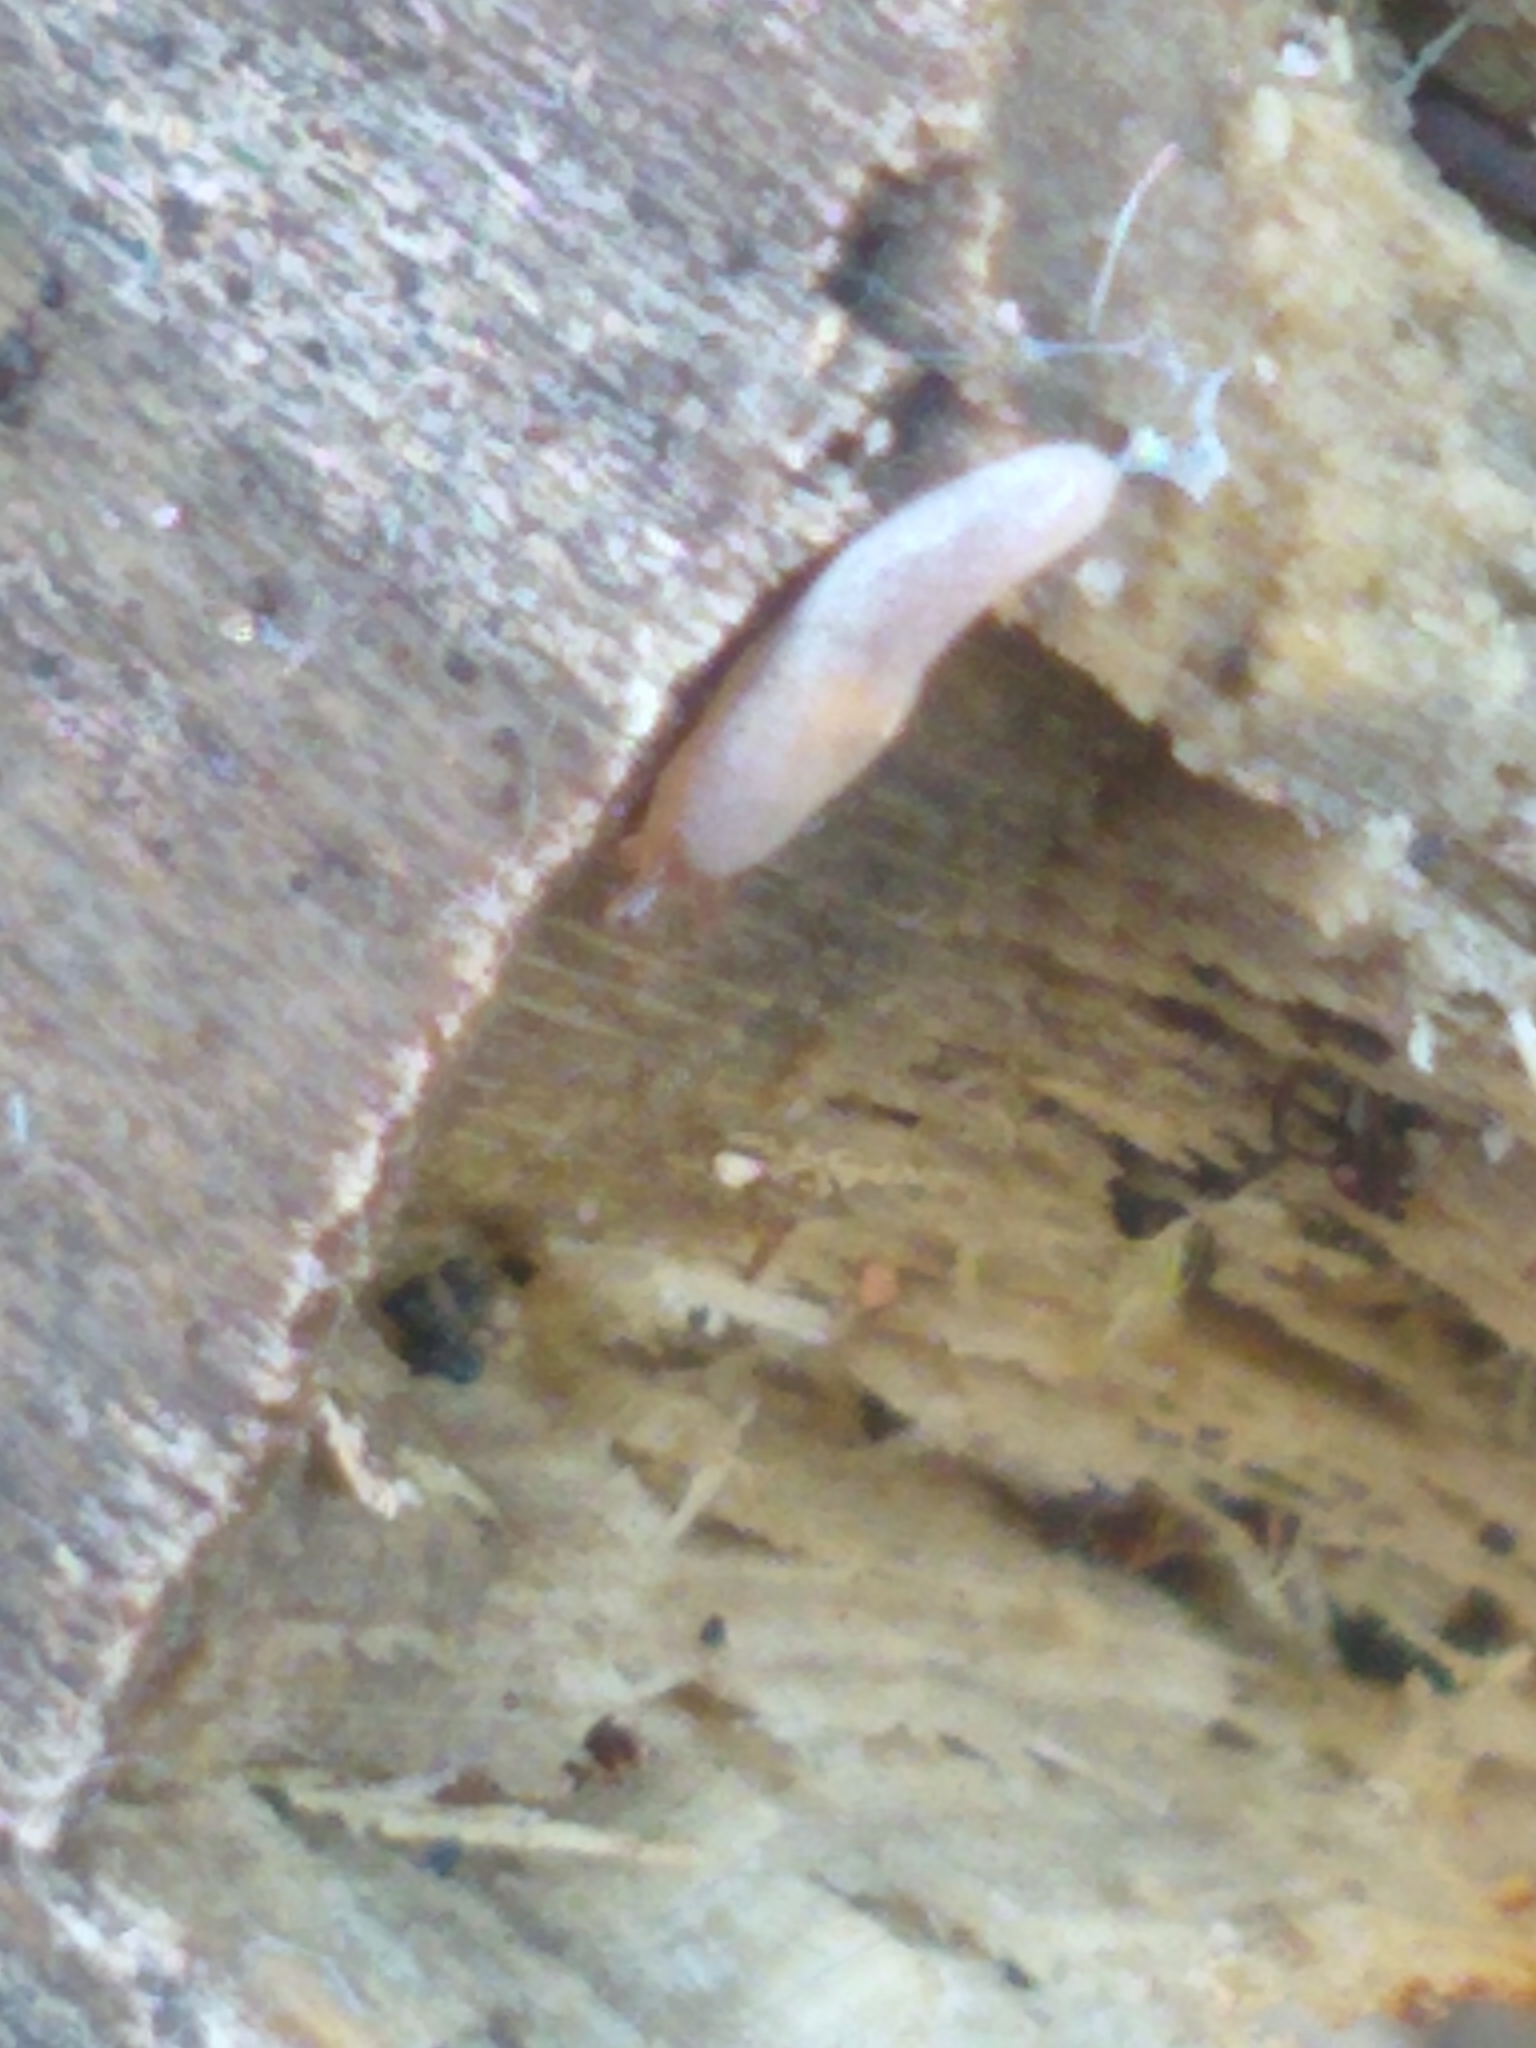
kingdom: Animalia
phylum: Mollusca
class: Gastropoda
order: Stylommatophora
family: Agriolimacidae
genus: Deroceras
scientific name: Deroceras reticulatum
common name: Gray field slug
